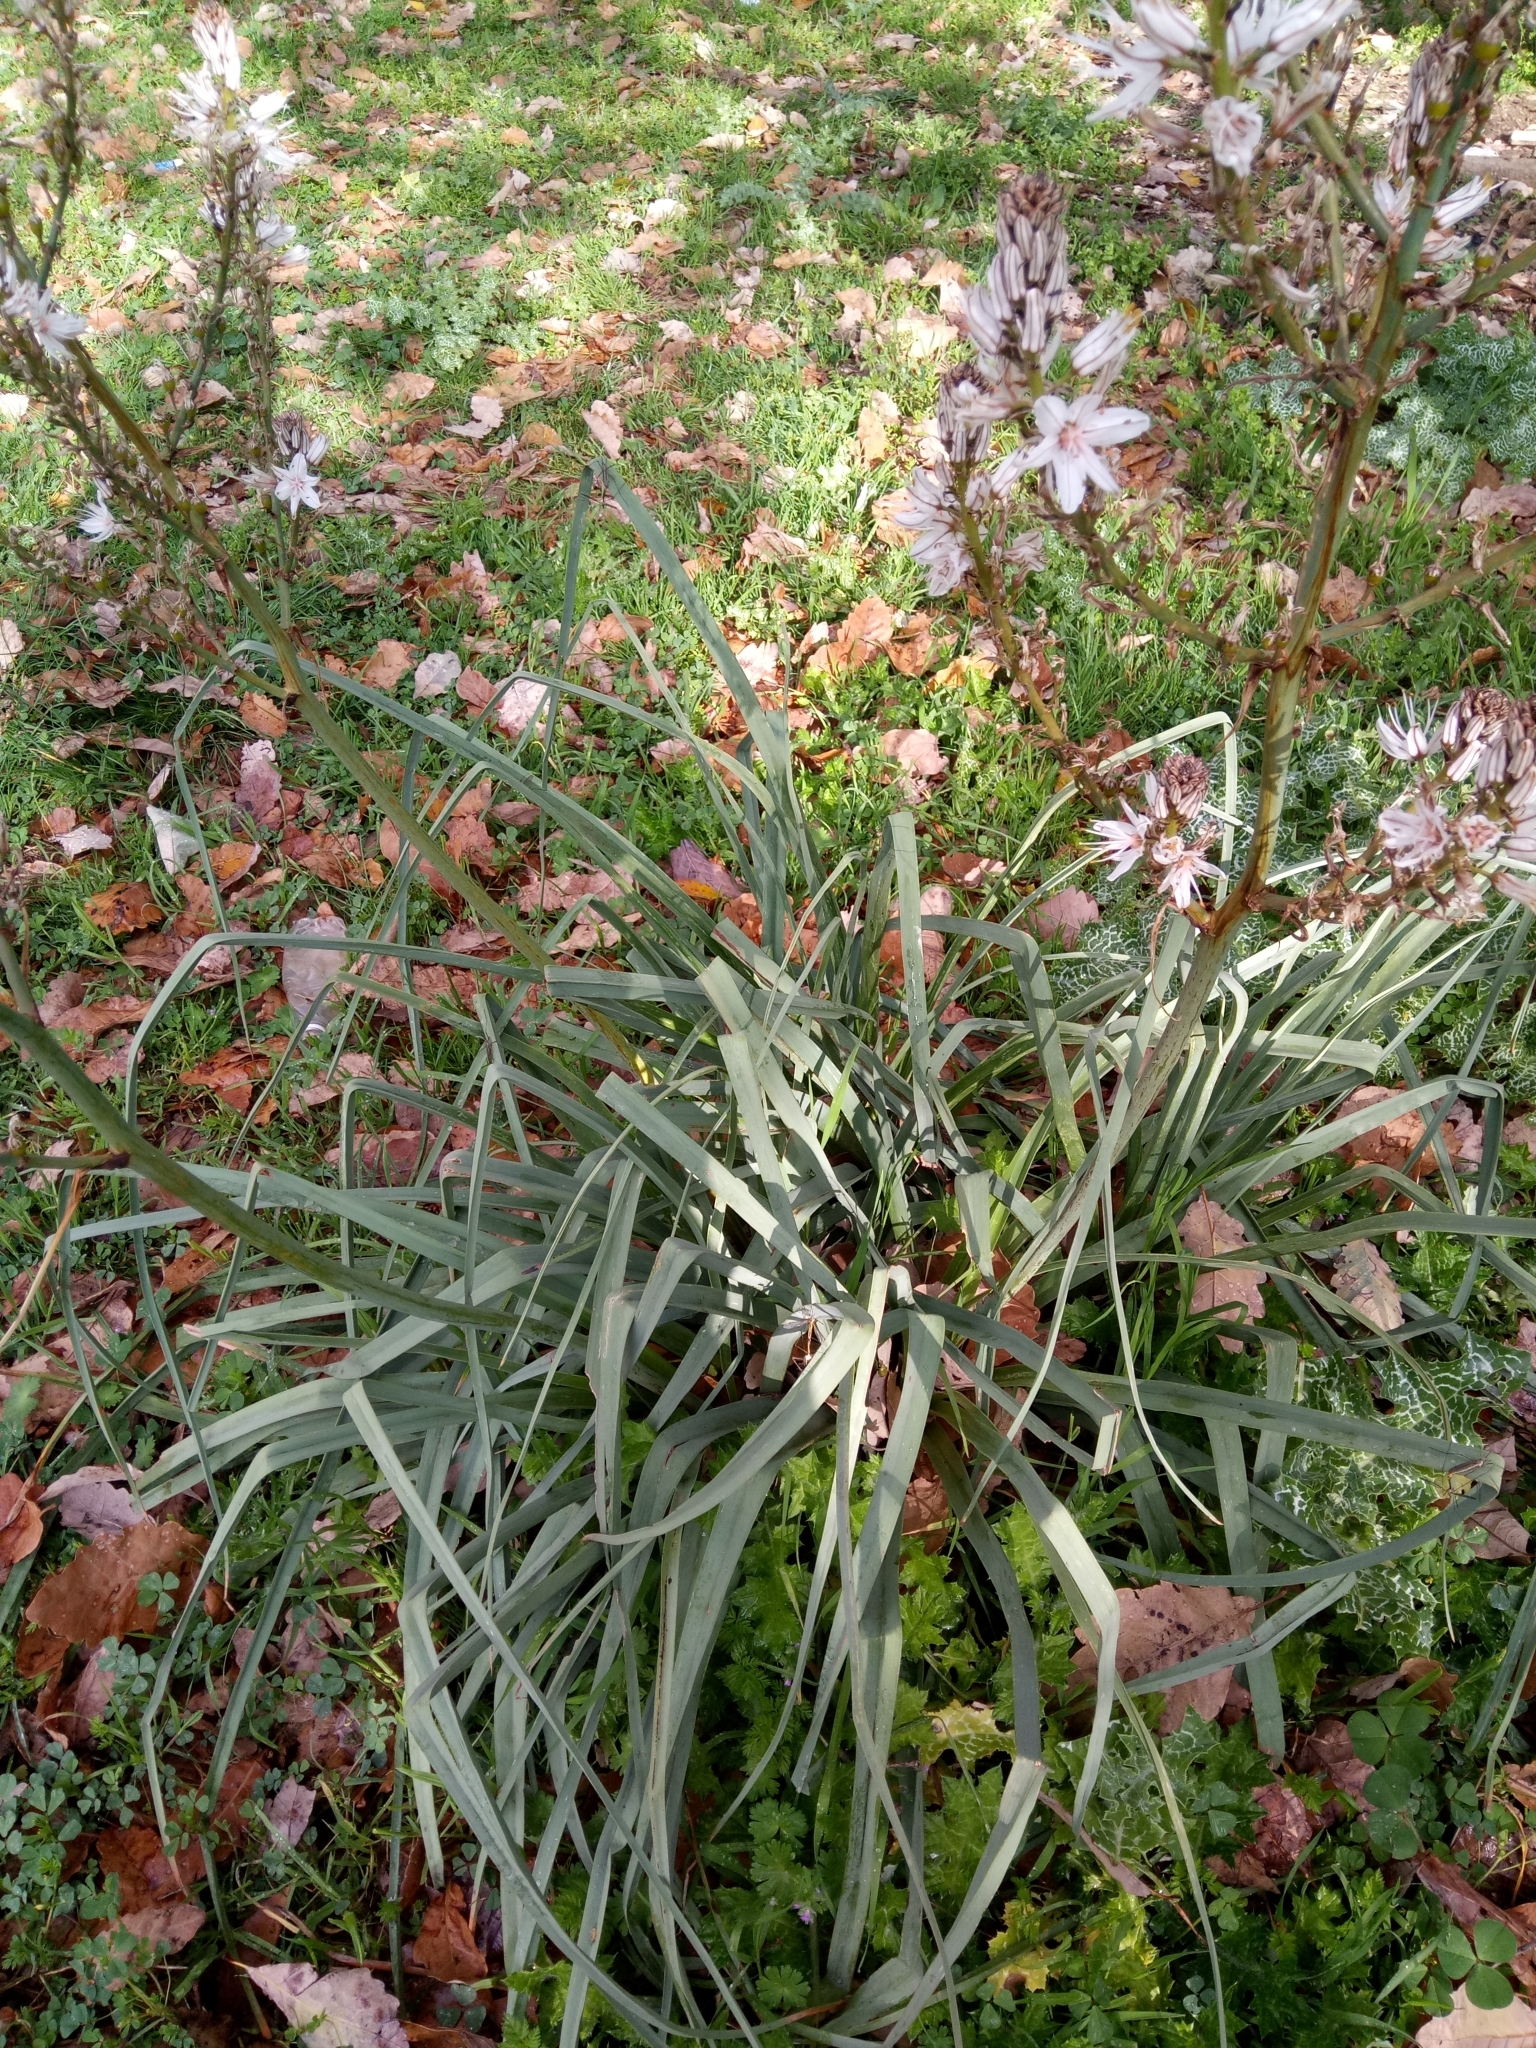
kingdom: Plantae
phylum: Tracheophyta
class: Liliopsida
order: Asparagales
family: Asphodelaceae
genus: Asphodelus
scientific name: Asphodelus ramosus
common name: Silverrod
